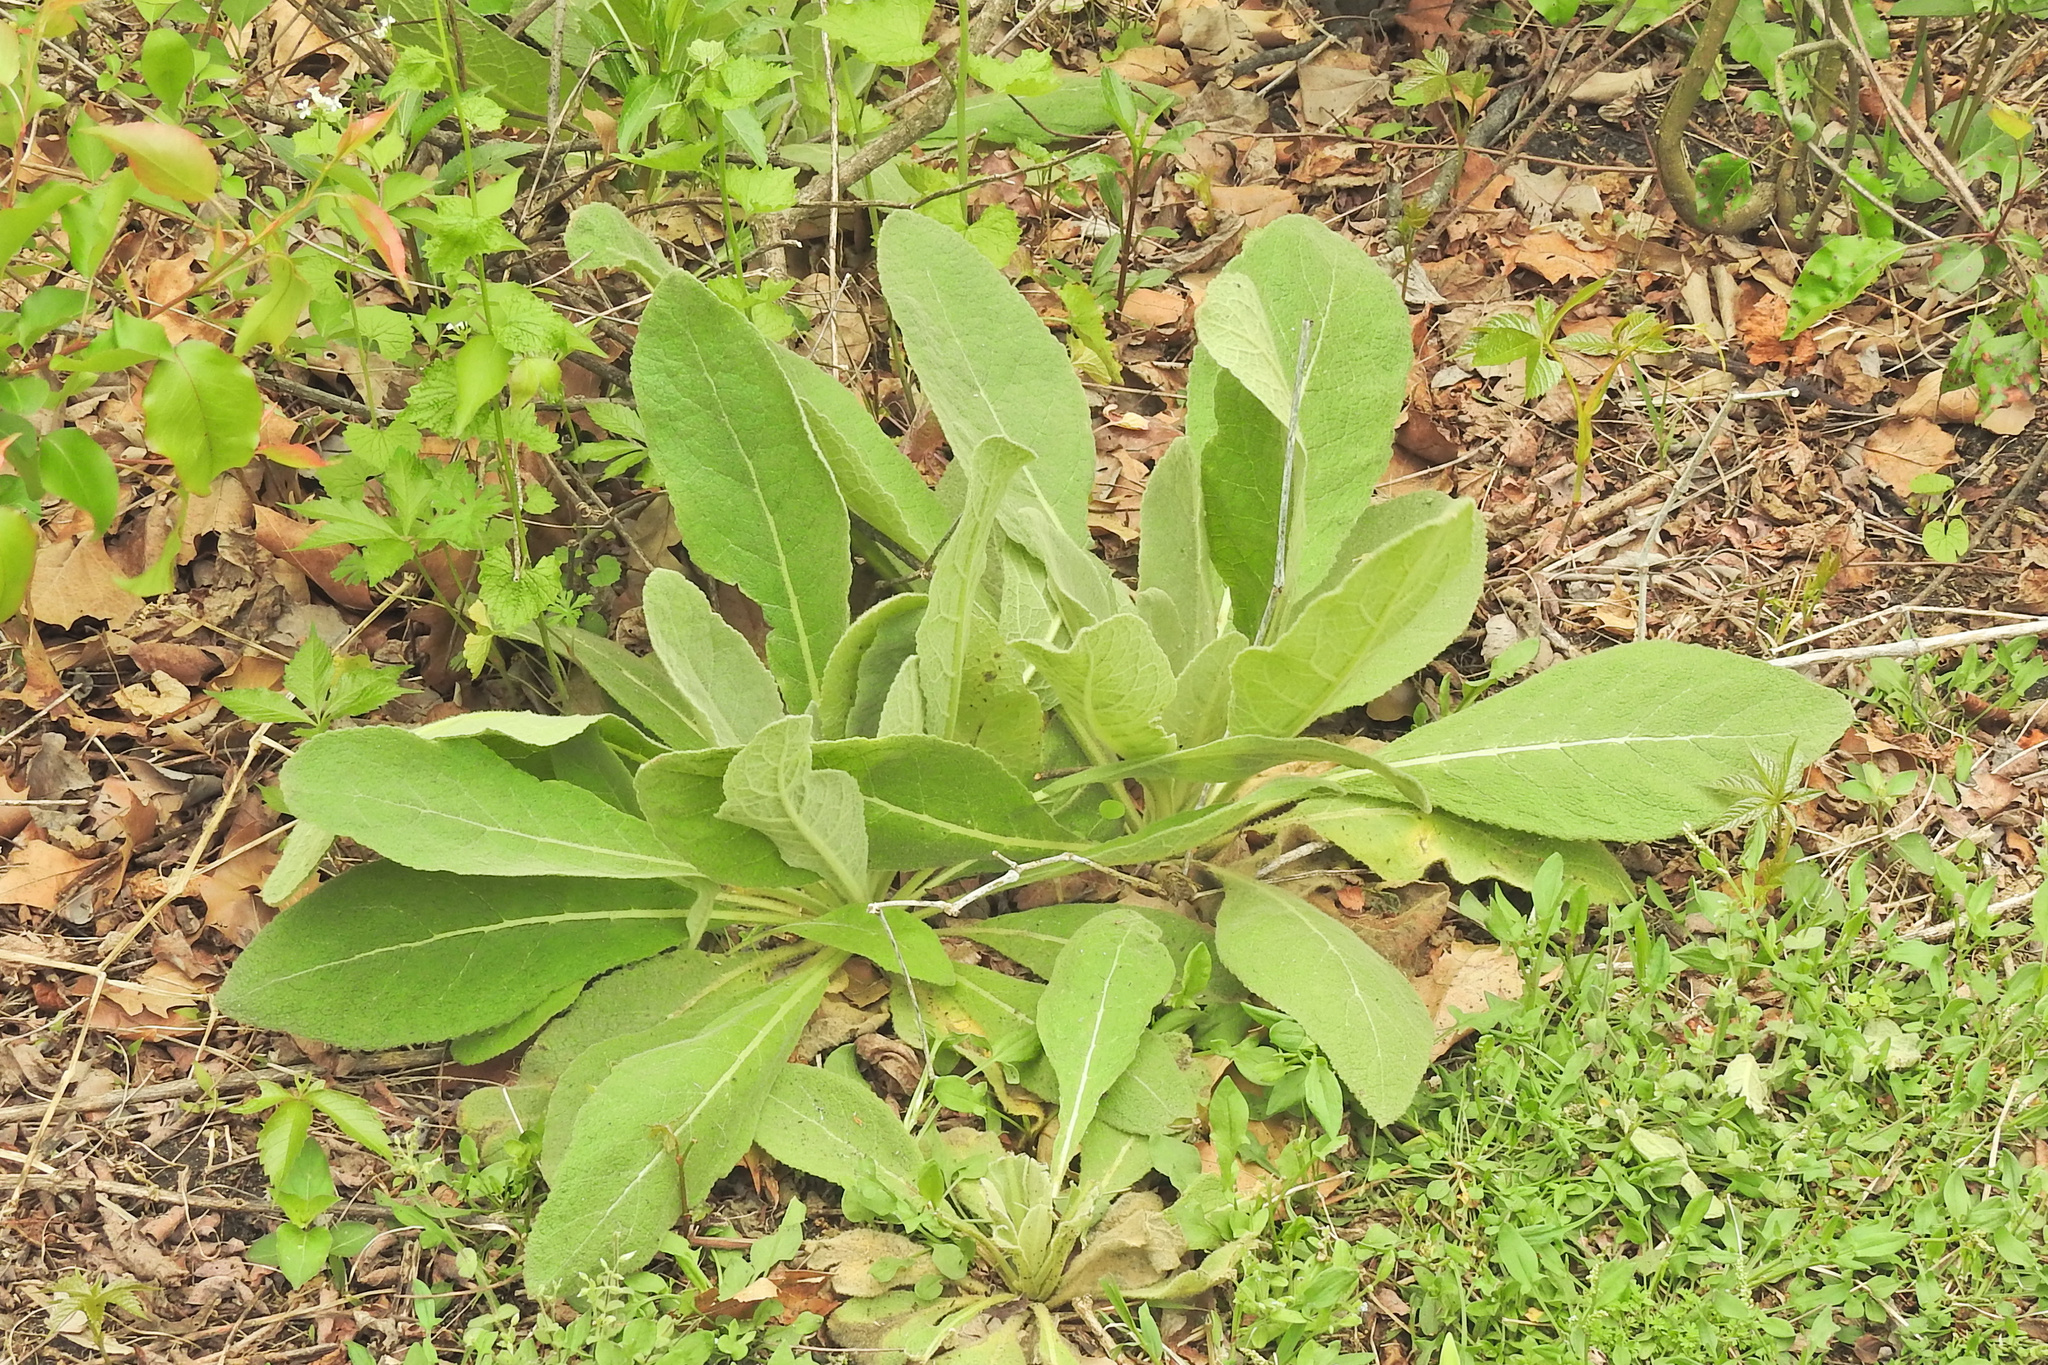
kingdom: Plantae
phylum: Tracheophyta
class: Magnoliopsida
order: Lamiales
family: Scrophulariaceae
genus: Verbascum
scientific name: Verbascum thapsus
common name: Common mullein
